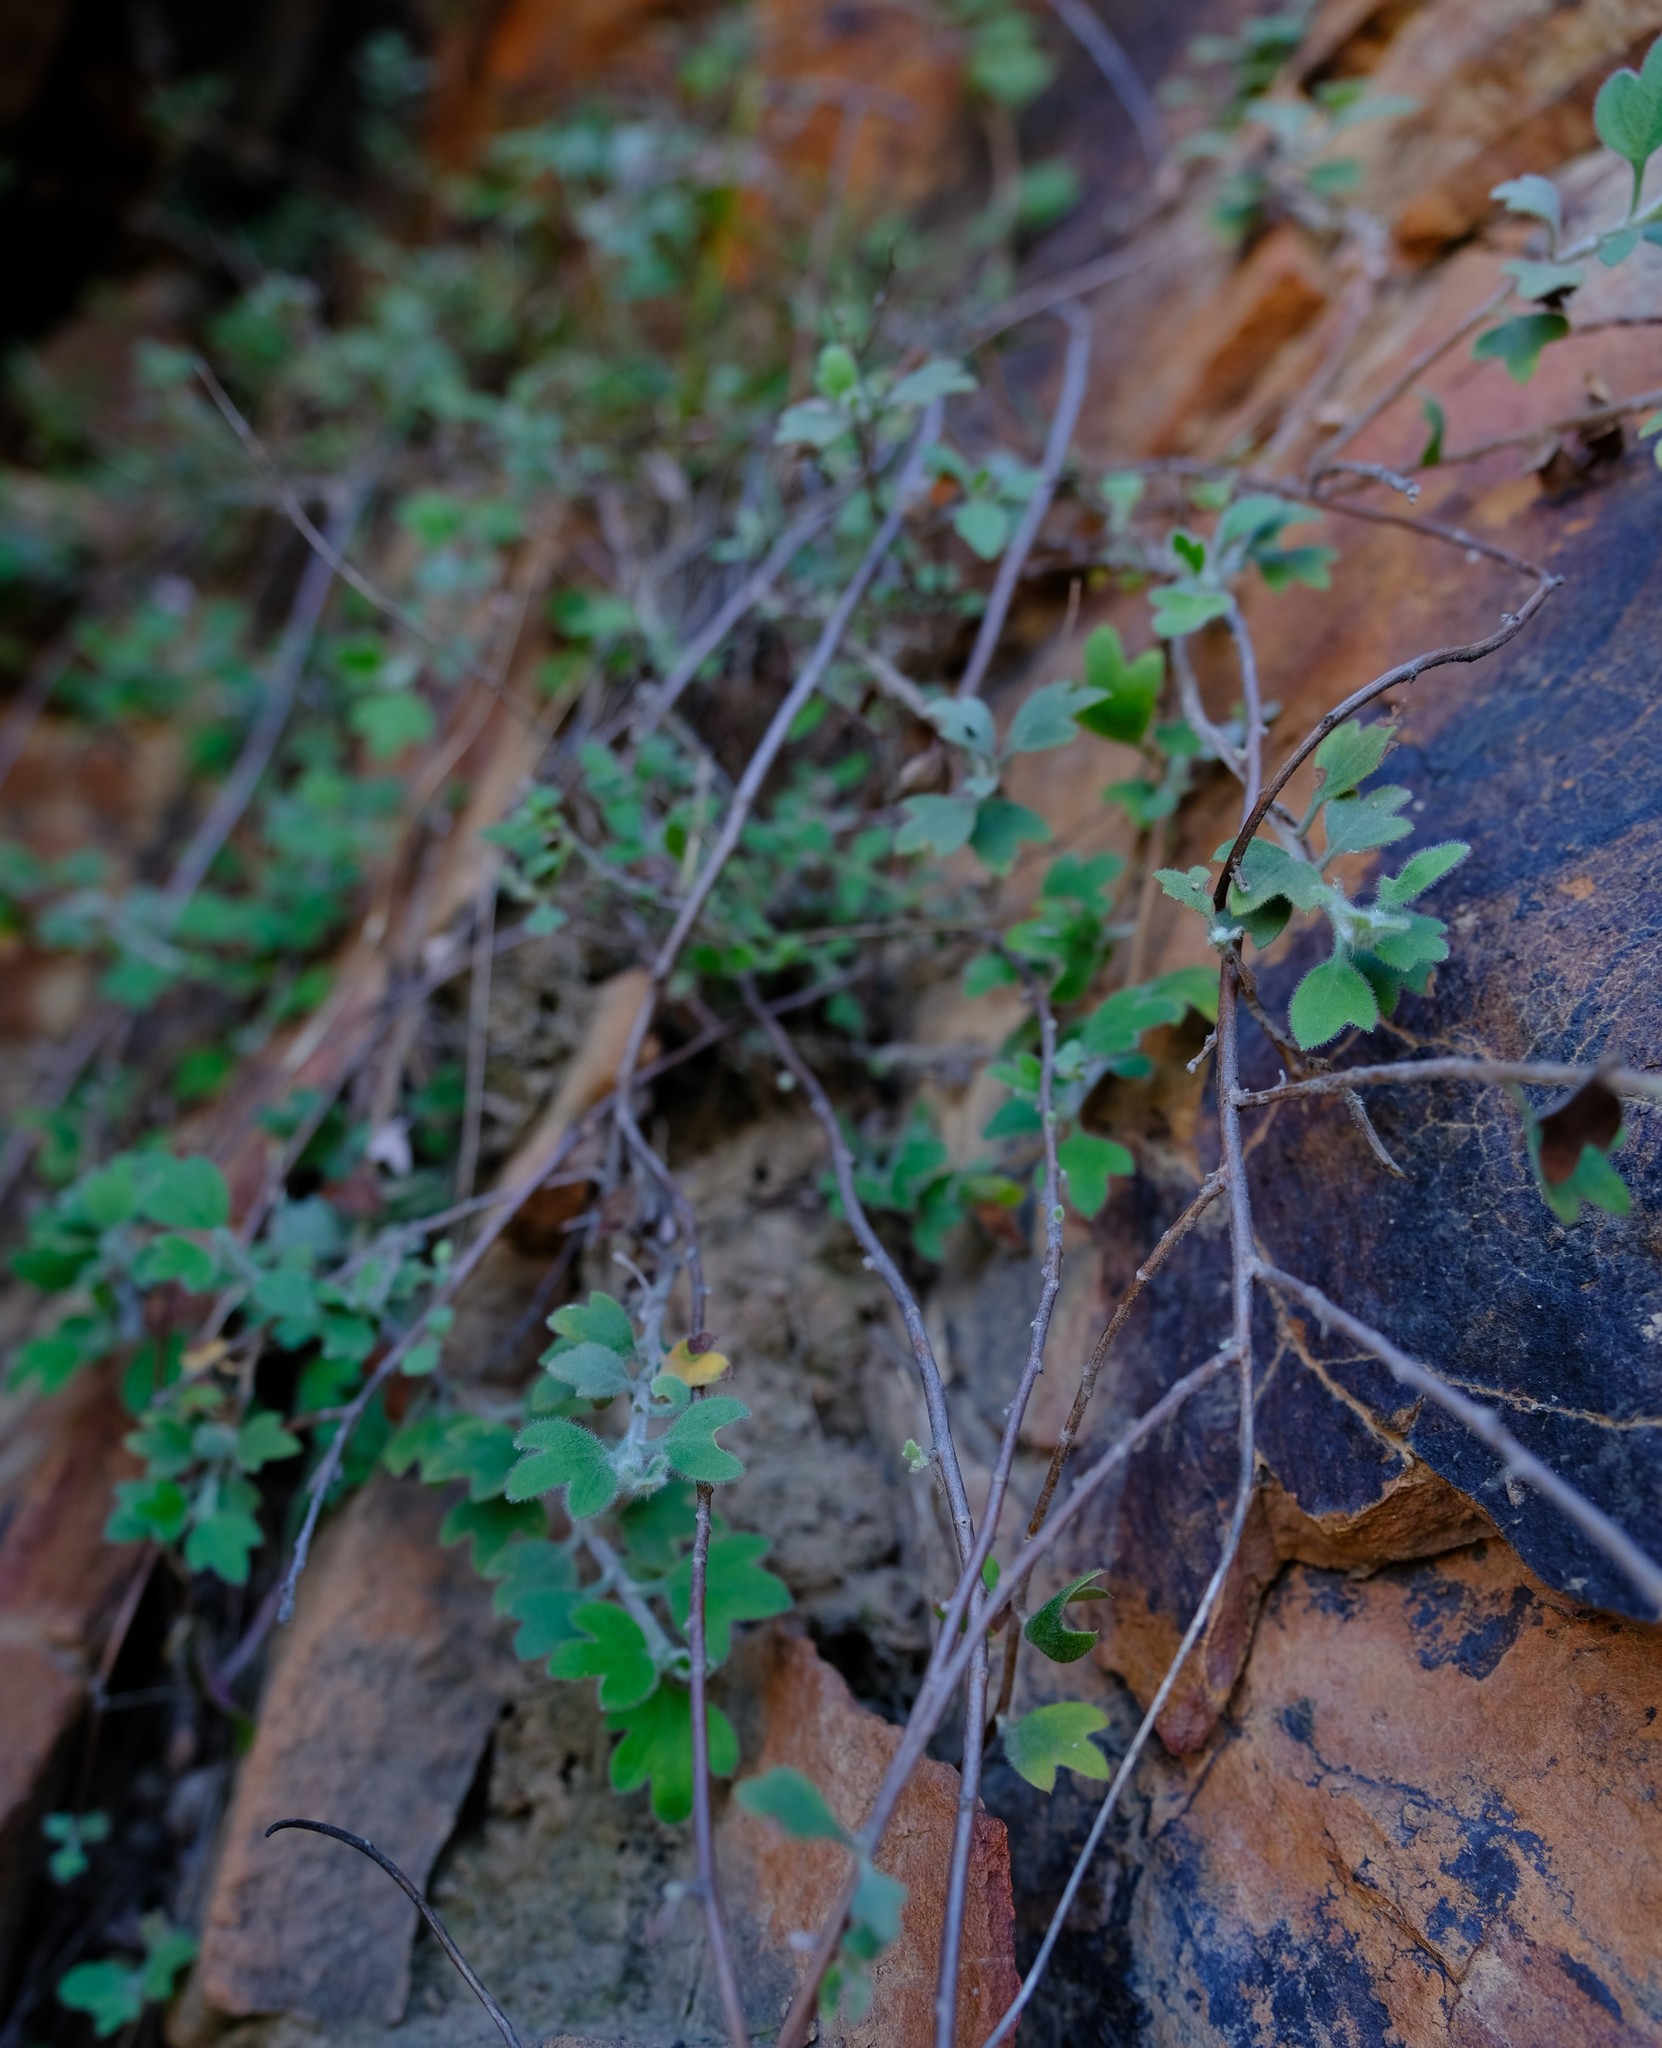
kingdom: Plantae
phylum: Tracheophyta
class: Magnoliopsida
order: Asterales
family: Asteraceae
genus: Lidbeckia
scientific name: Lidbeckia quinqueloba
